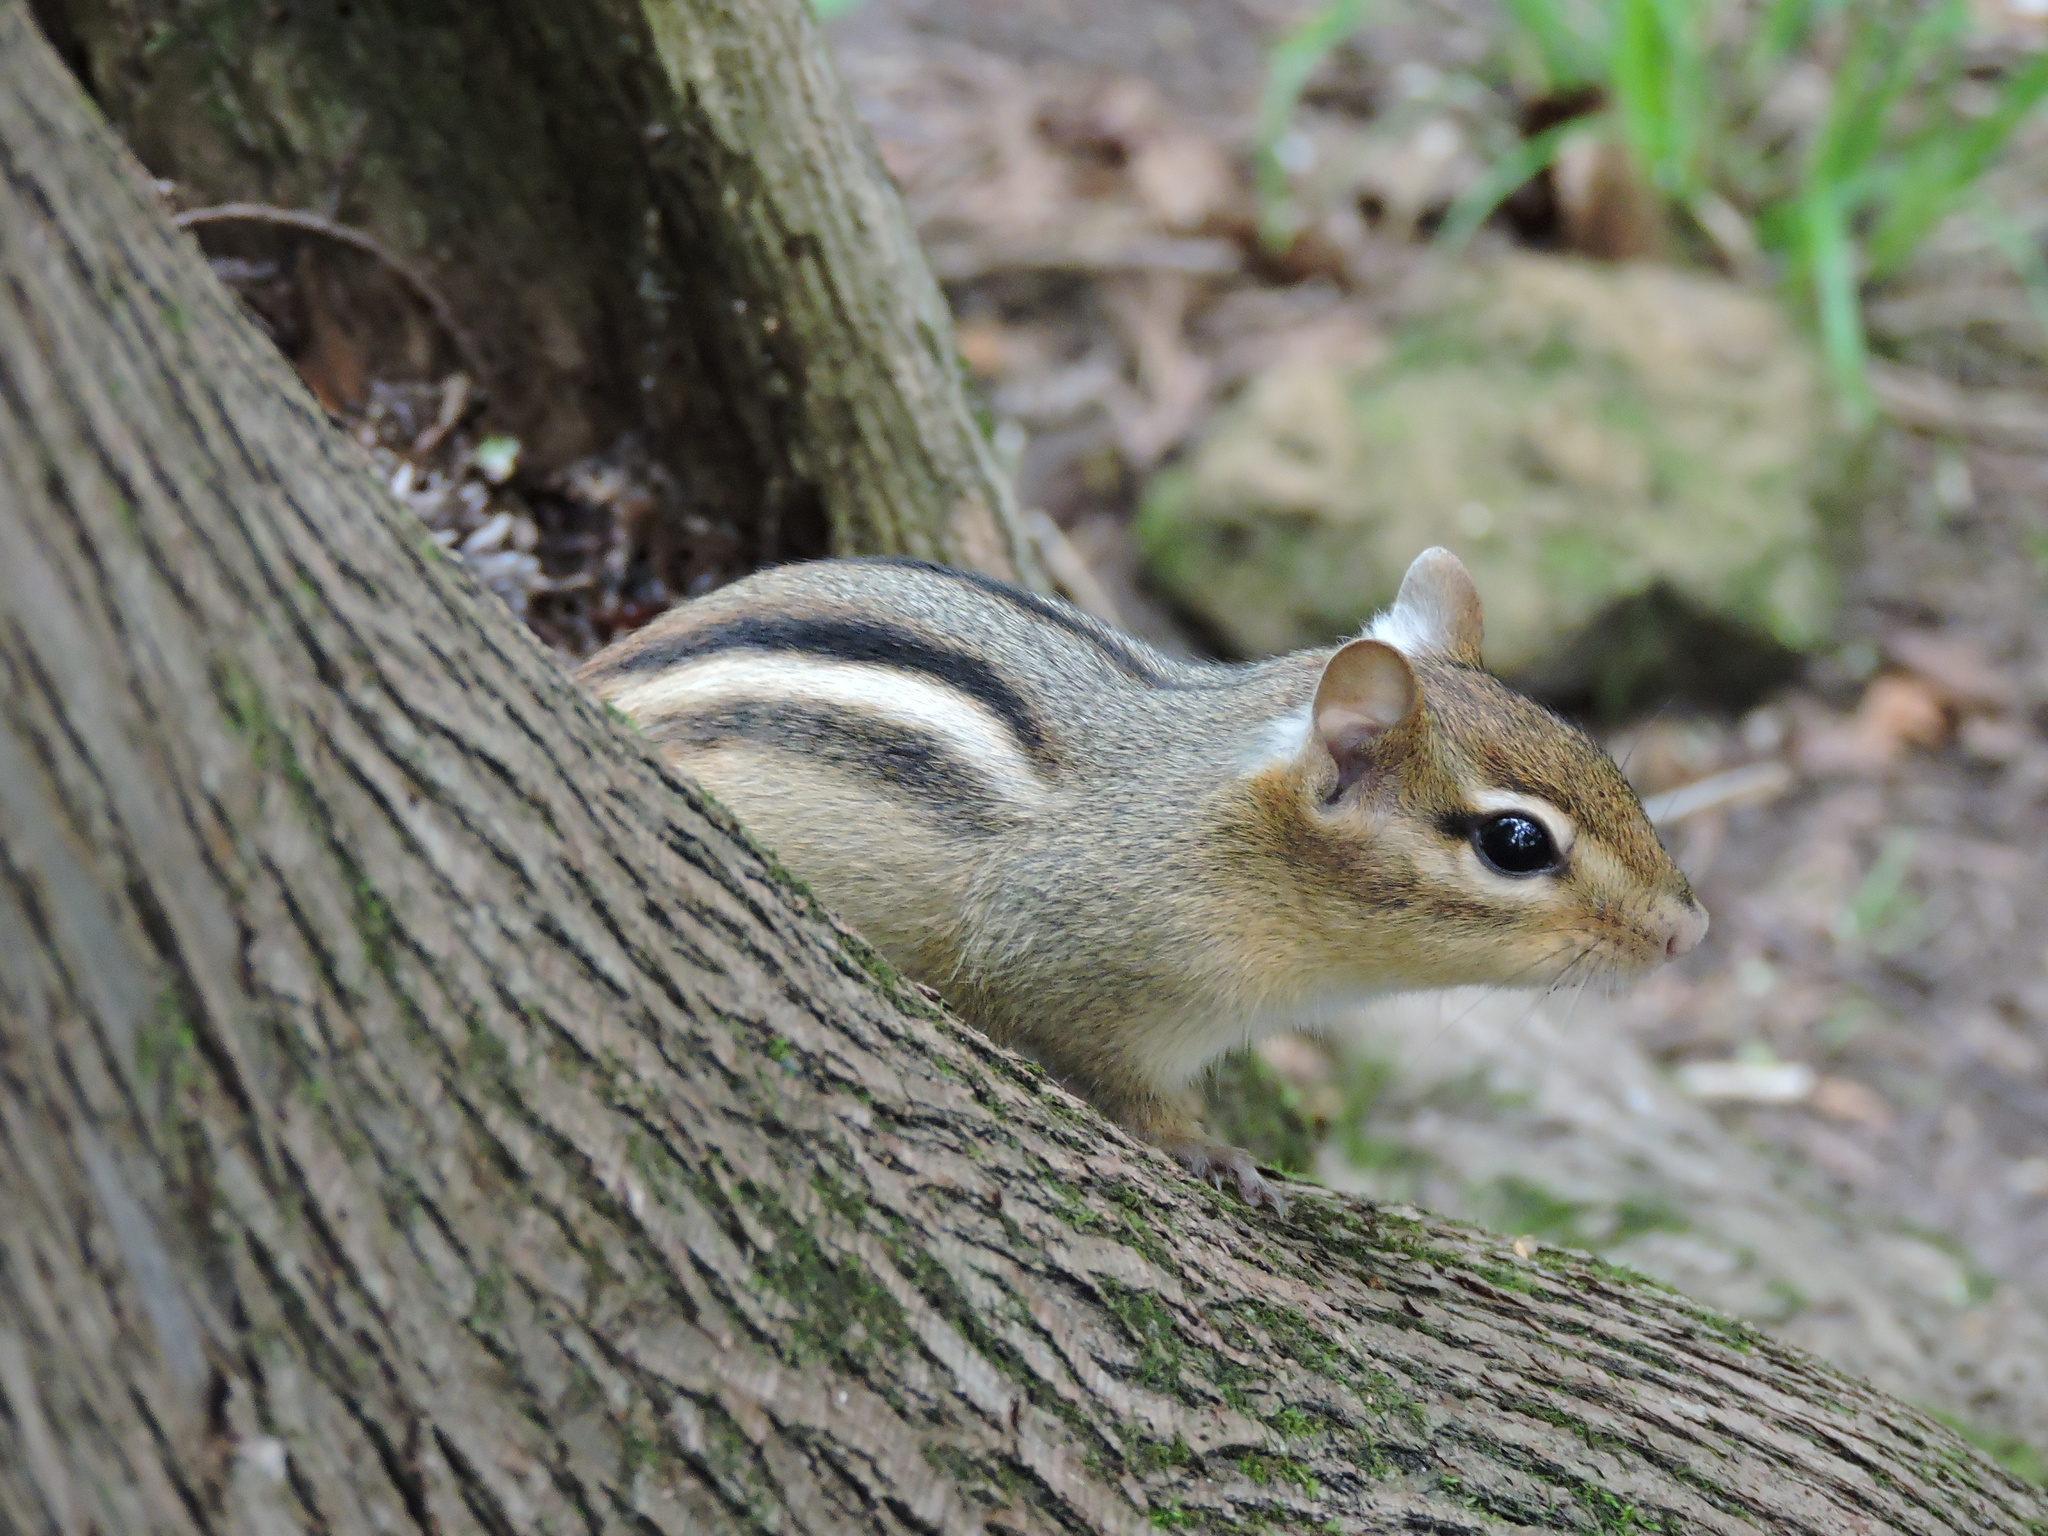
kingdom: Animalia
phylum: Chordata
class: Mammalia
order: Rodentia
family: Sciuridae
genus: Tamias
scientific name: Tamias striatus
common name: Eastern chipmunk
